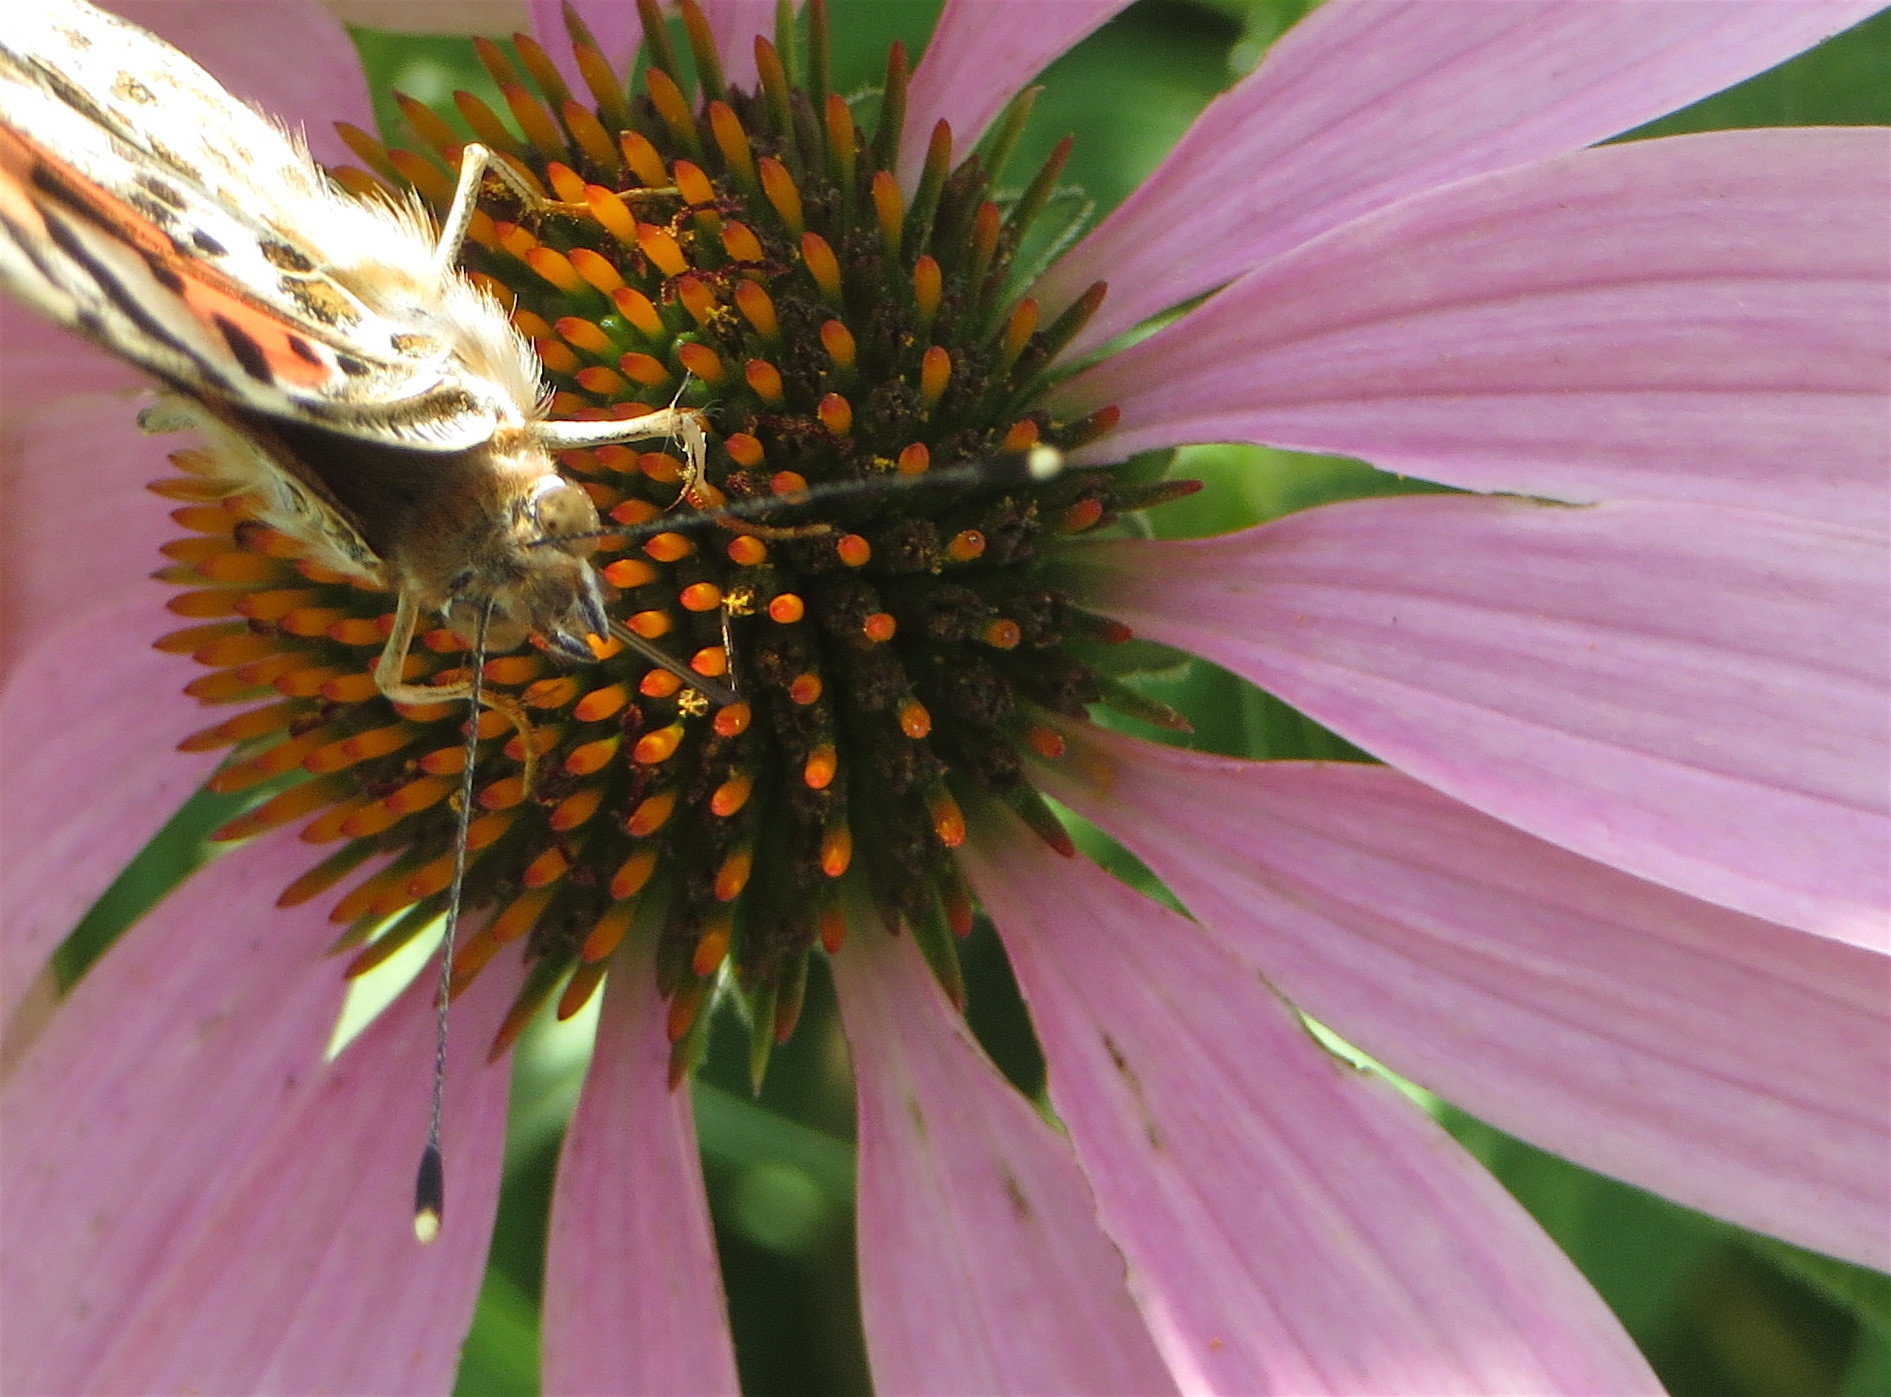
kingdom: Animalia
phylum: Arthropoda
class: Insecta
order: Lepidoptera
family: Nymphalidae
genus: Vanessa
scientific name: Vanessa cardui
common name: Painted lady
